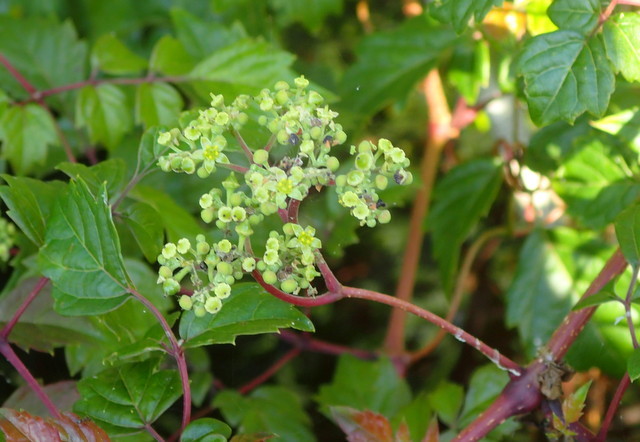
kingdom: Plantae
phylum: Tracheophyta
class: Magnoliopsida
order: Vitales
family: Vitaceae
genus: Nekemias
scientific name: Nekemias arborea
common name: Peppervine
